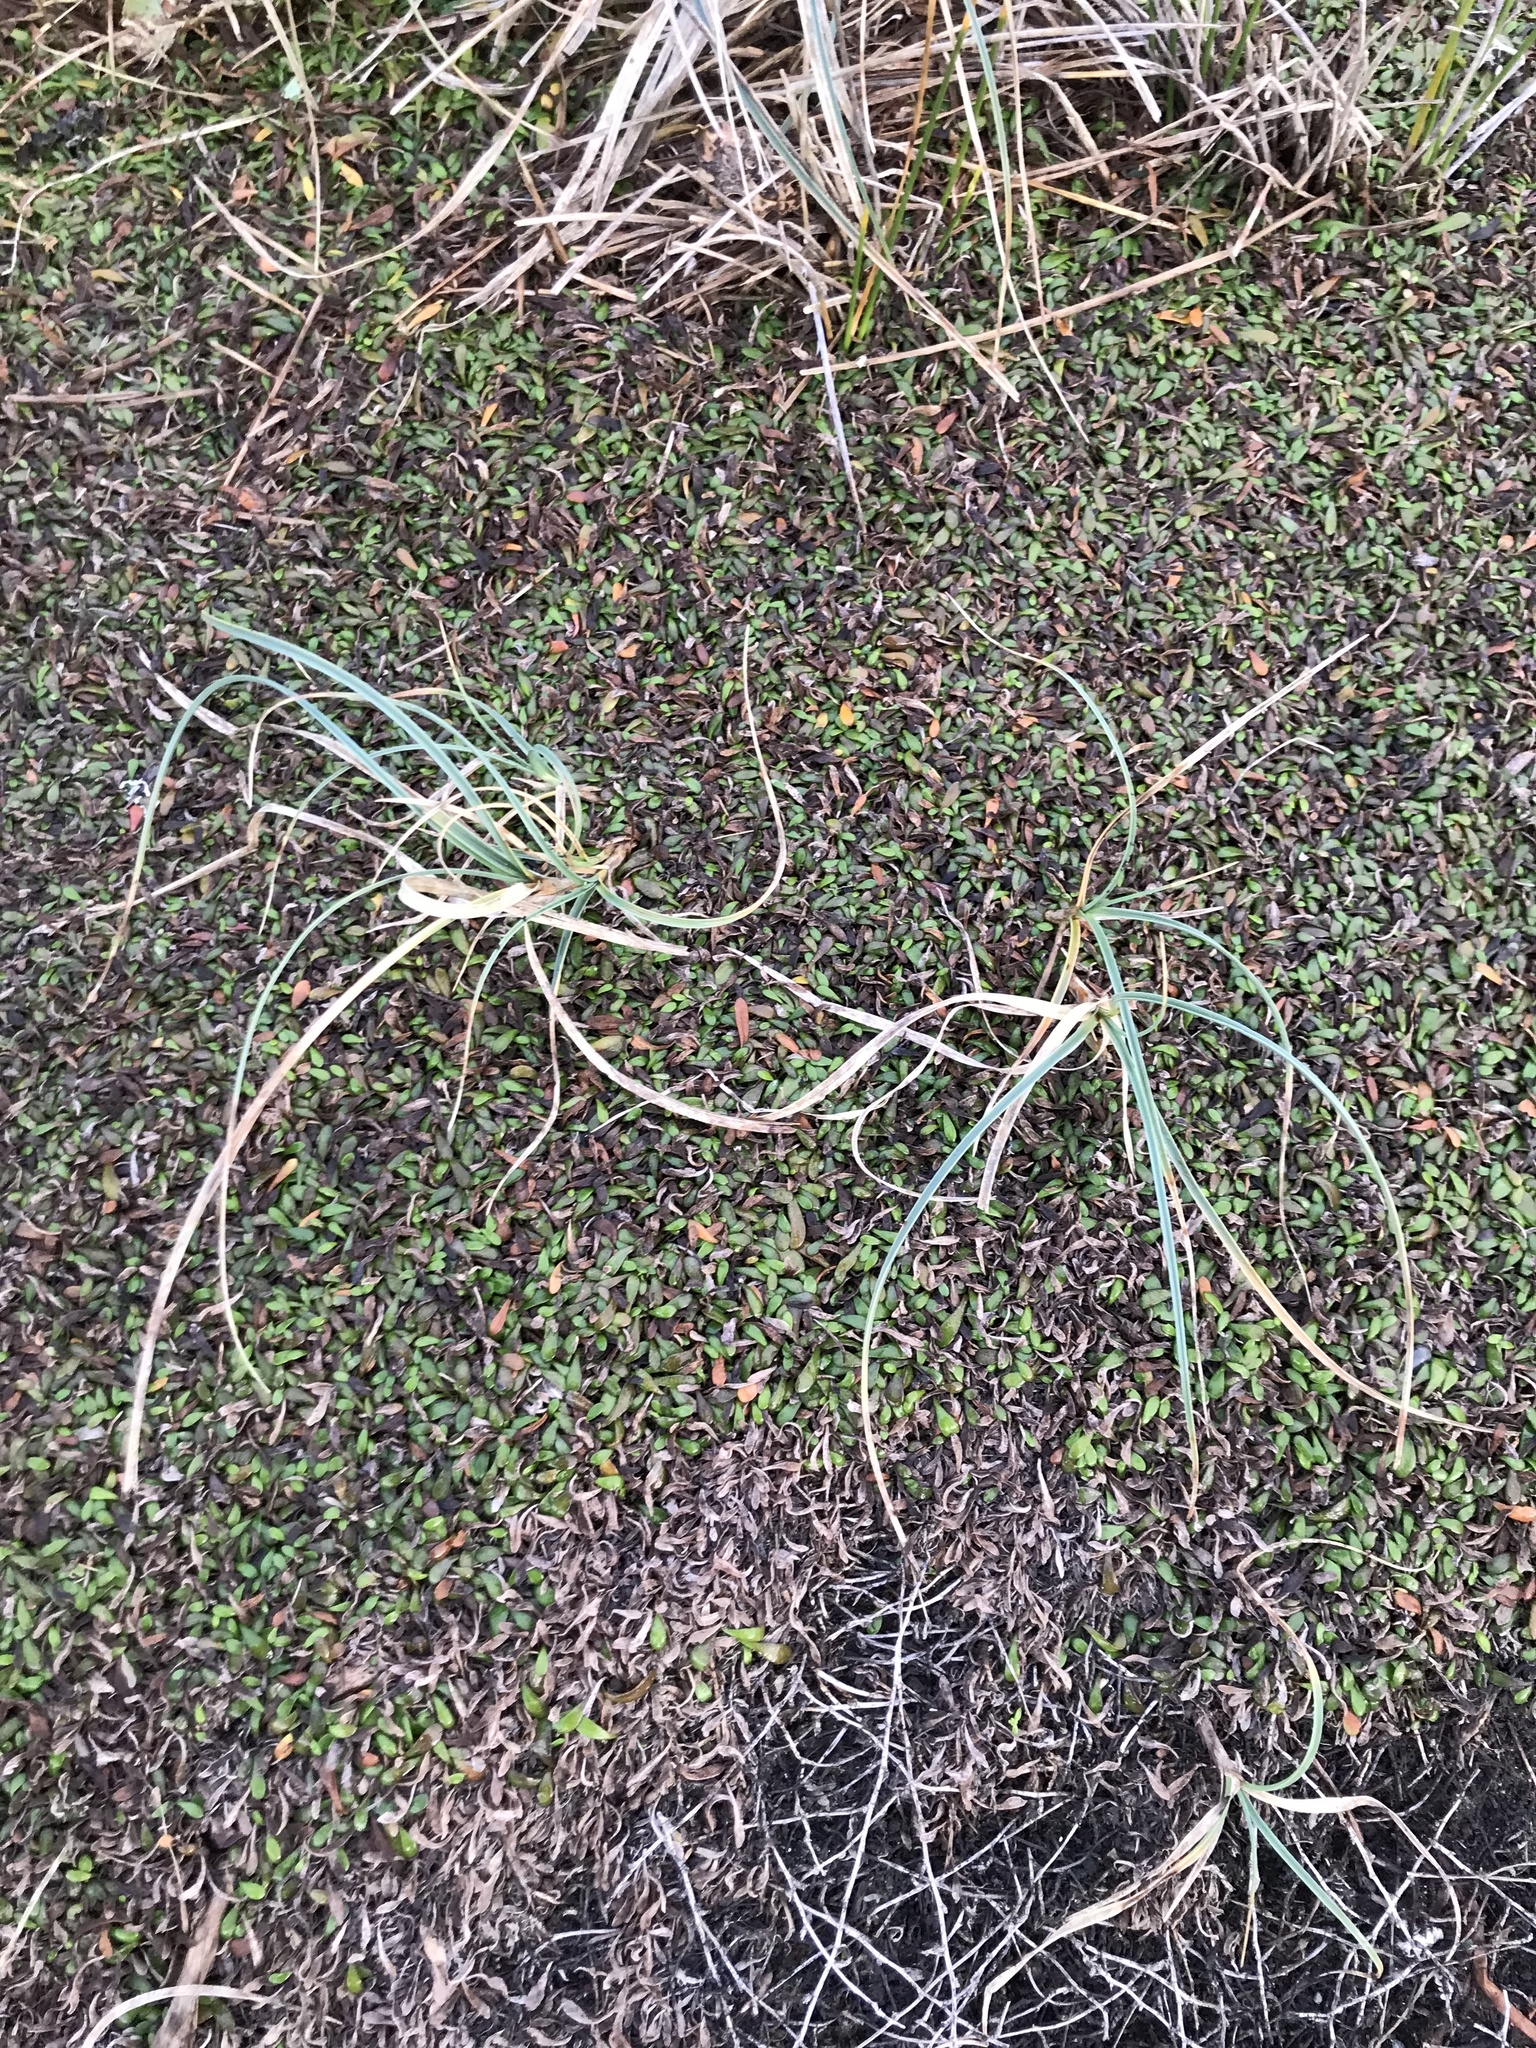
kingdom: Plantae
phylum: Tracheophyta
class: Liliopsida
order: Poales
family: Cyperaceae
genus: Carex
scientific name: Carex pumila
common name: Dwarf sedge
